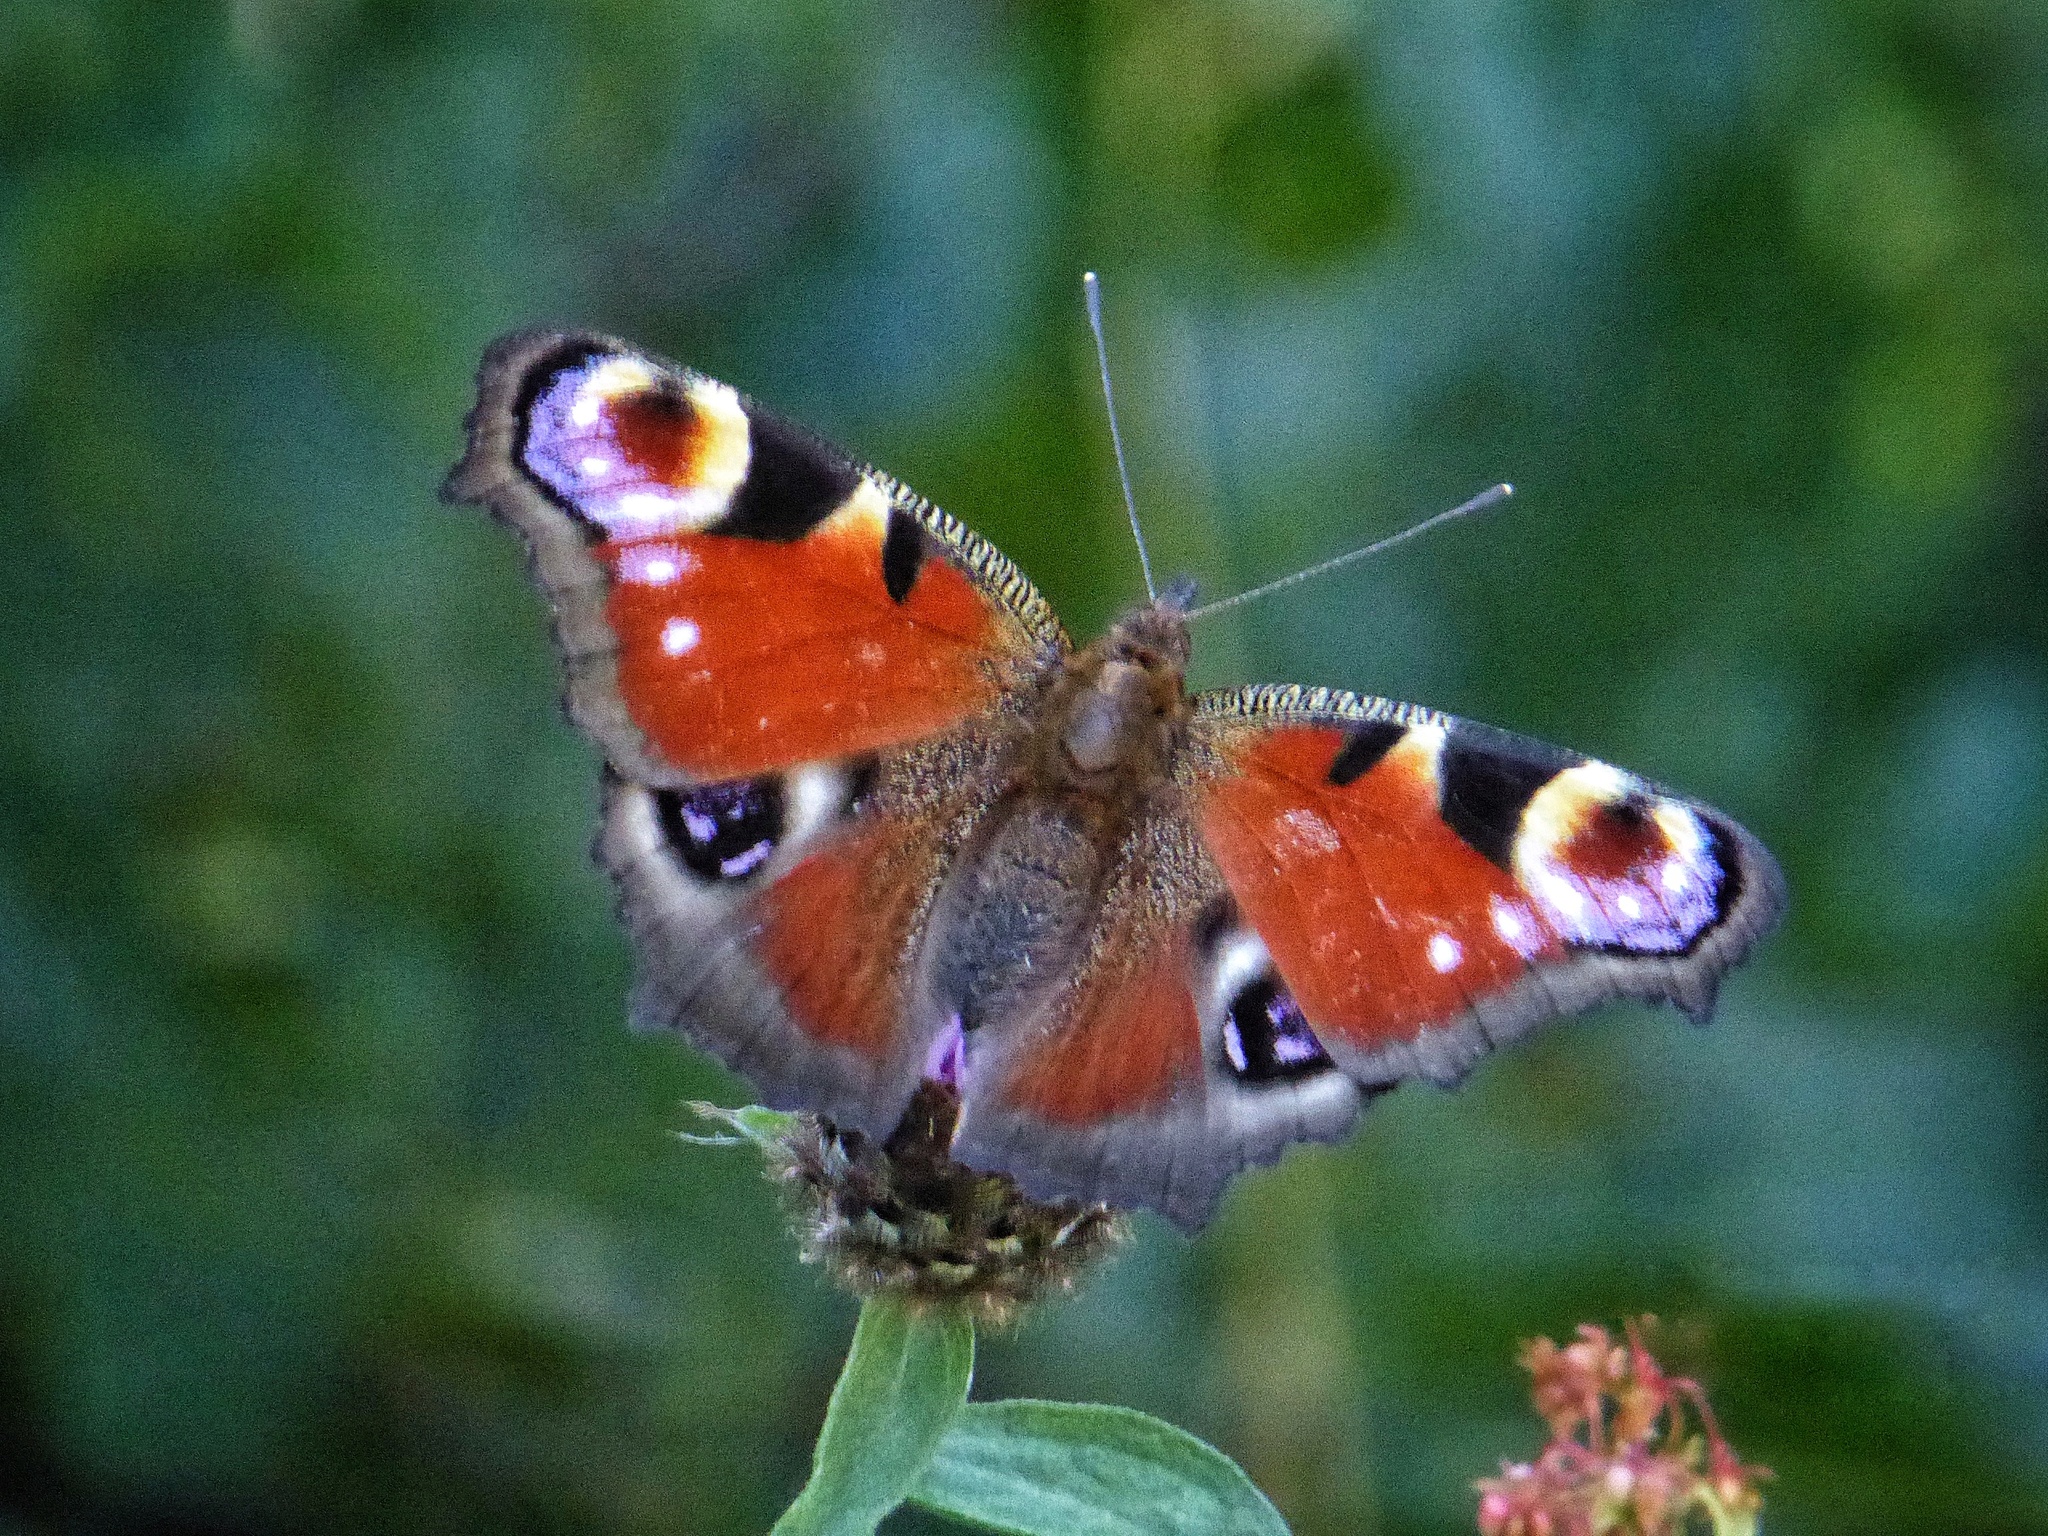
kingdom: Animalia
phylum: Arthropoda
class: Insecta
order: Lepidoptera
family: Nymphalidae
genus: Aglais
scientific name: Aglais io
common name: Peacock
